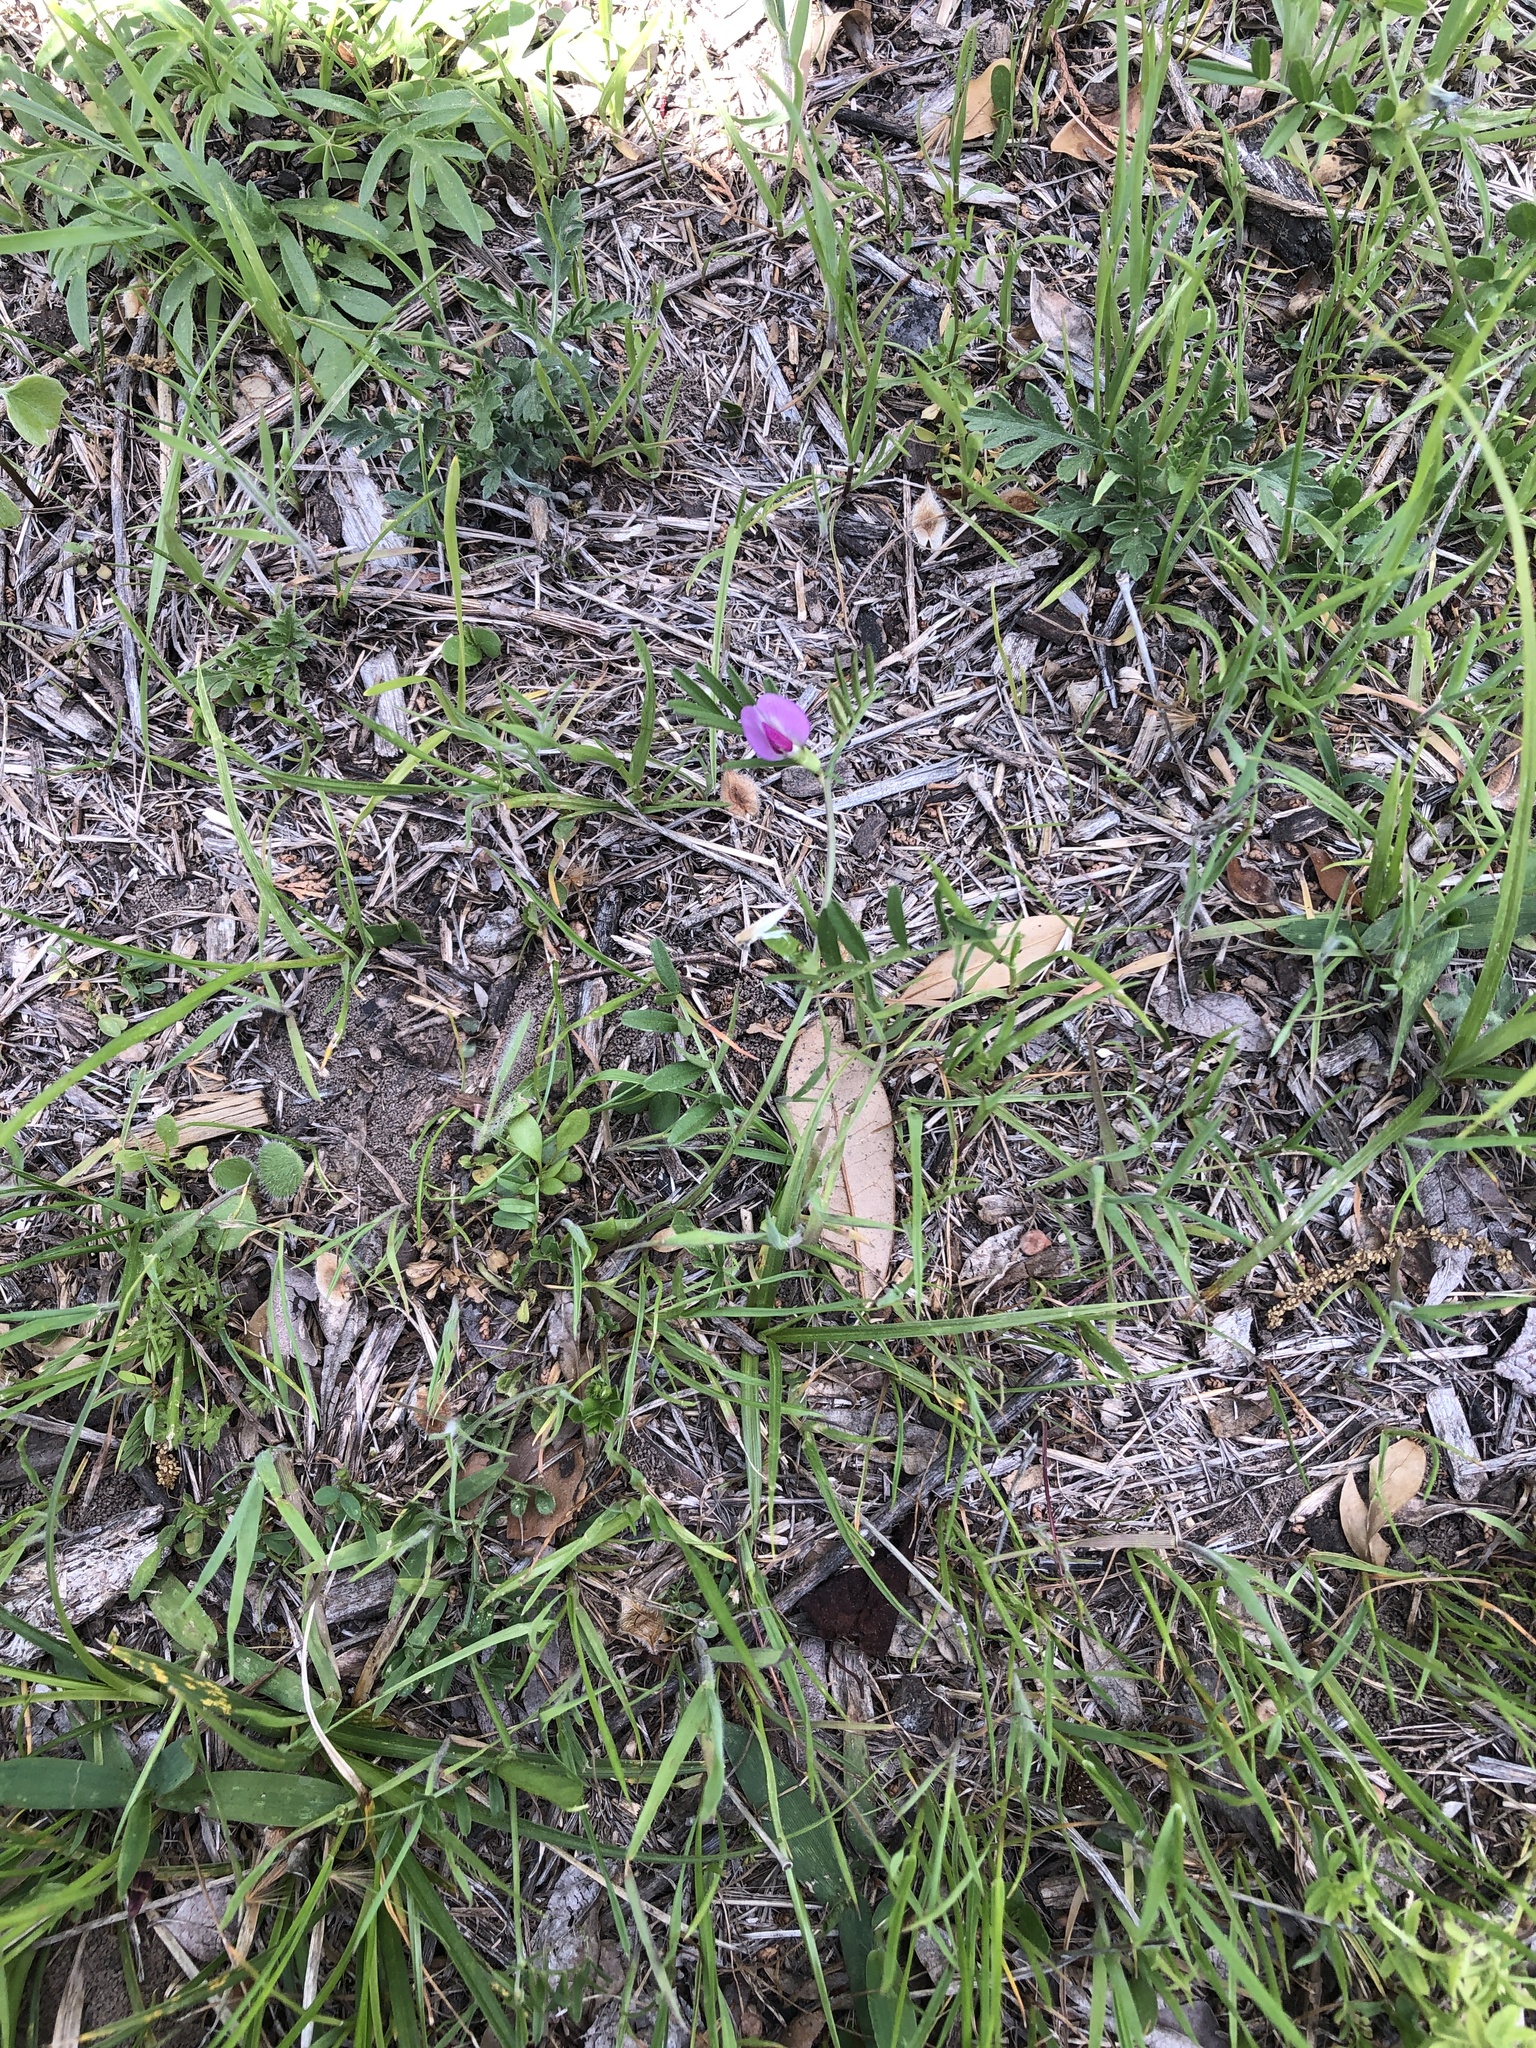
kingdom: Plantae
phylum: Tracheophyta
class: Magnoliopsida
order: Fabales
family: Fabaceae
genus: Vicia
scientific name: Vicia sativa
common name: Garden vetch
